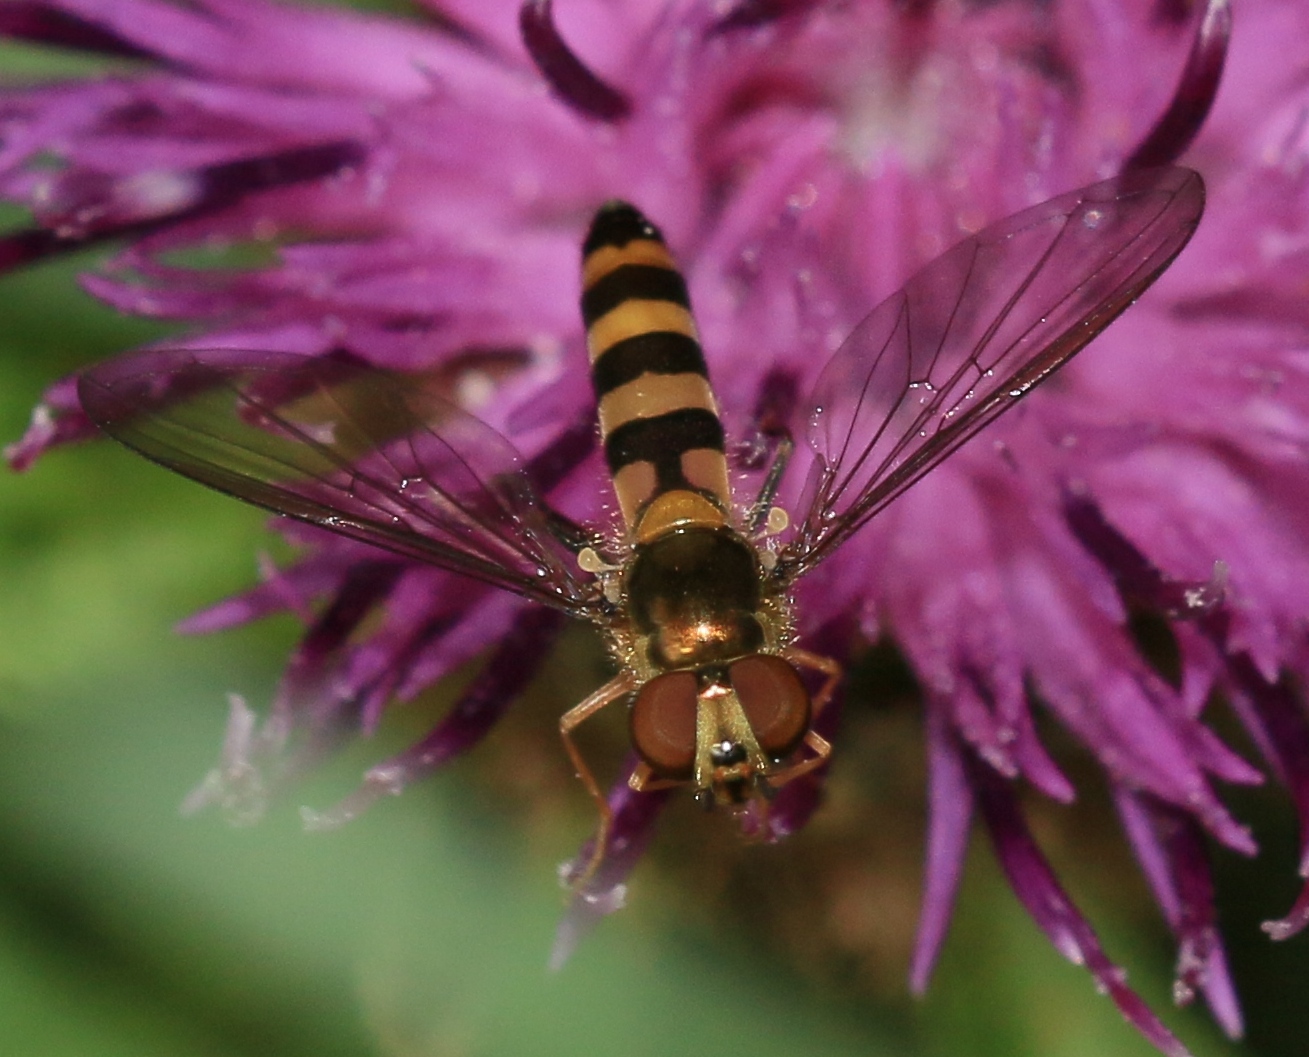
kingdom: Animalia
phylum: Arthropoda
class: Insecta
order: Diptera
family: Syrphidae
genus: Meliscaeva
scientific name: Meliscaeva cinctella
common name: American thintail fly
